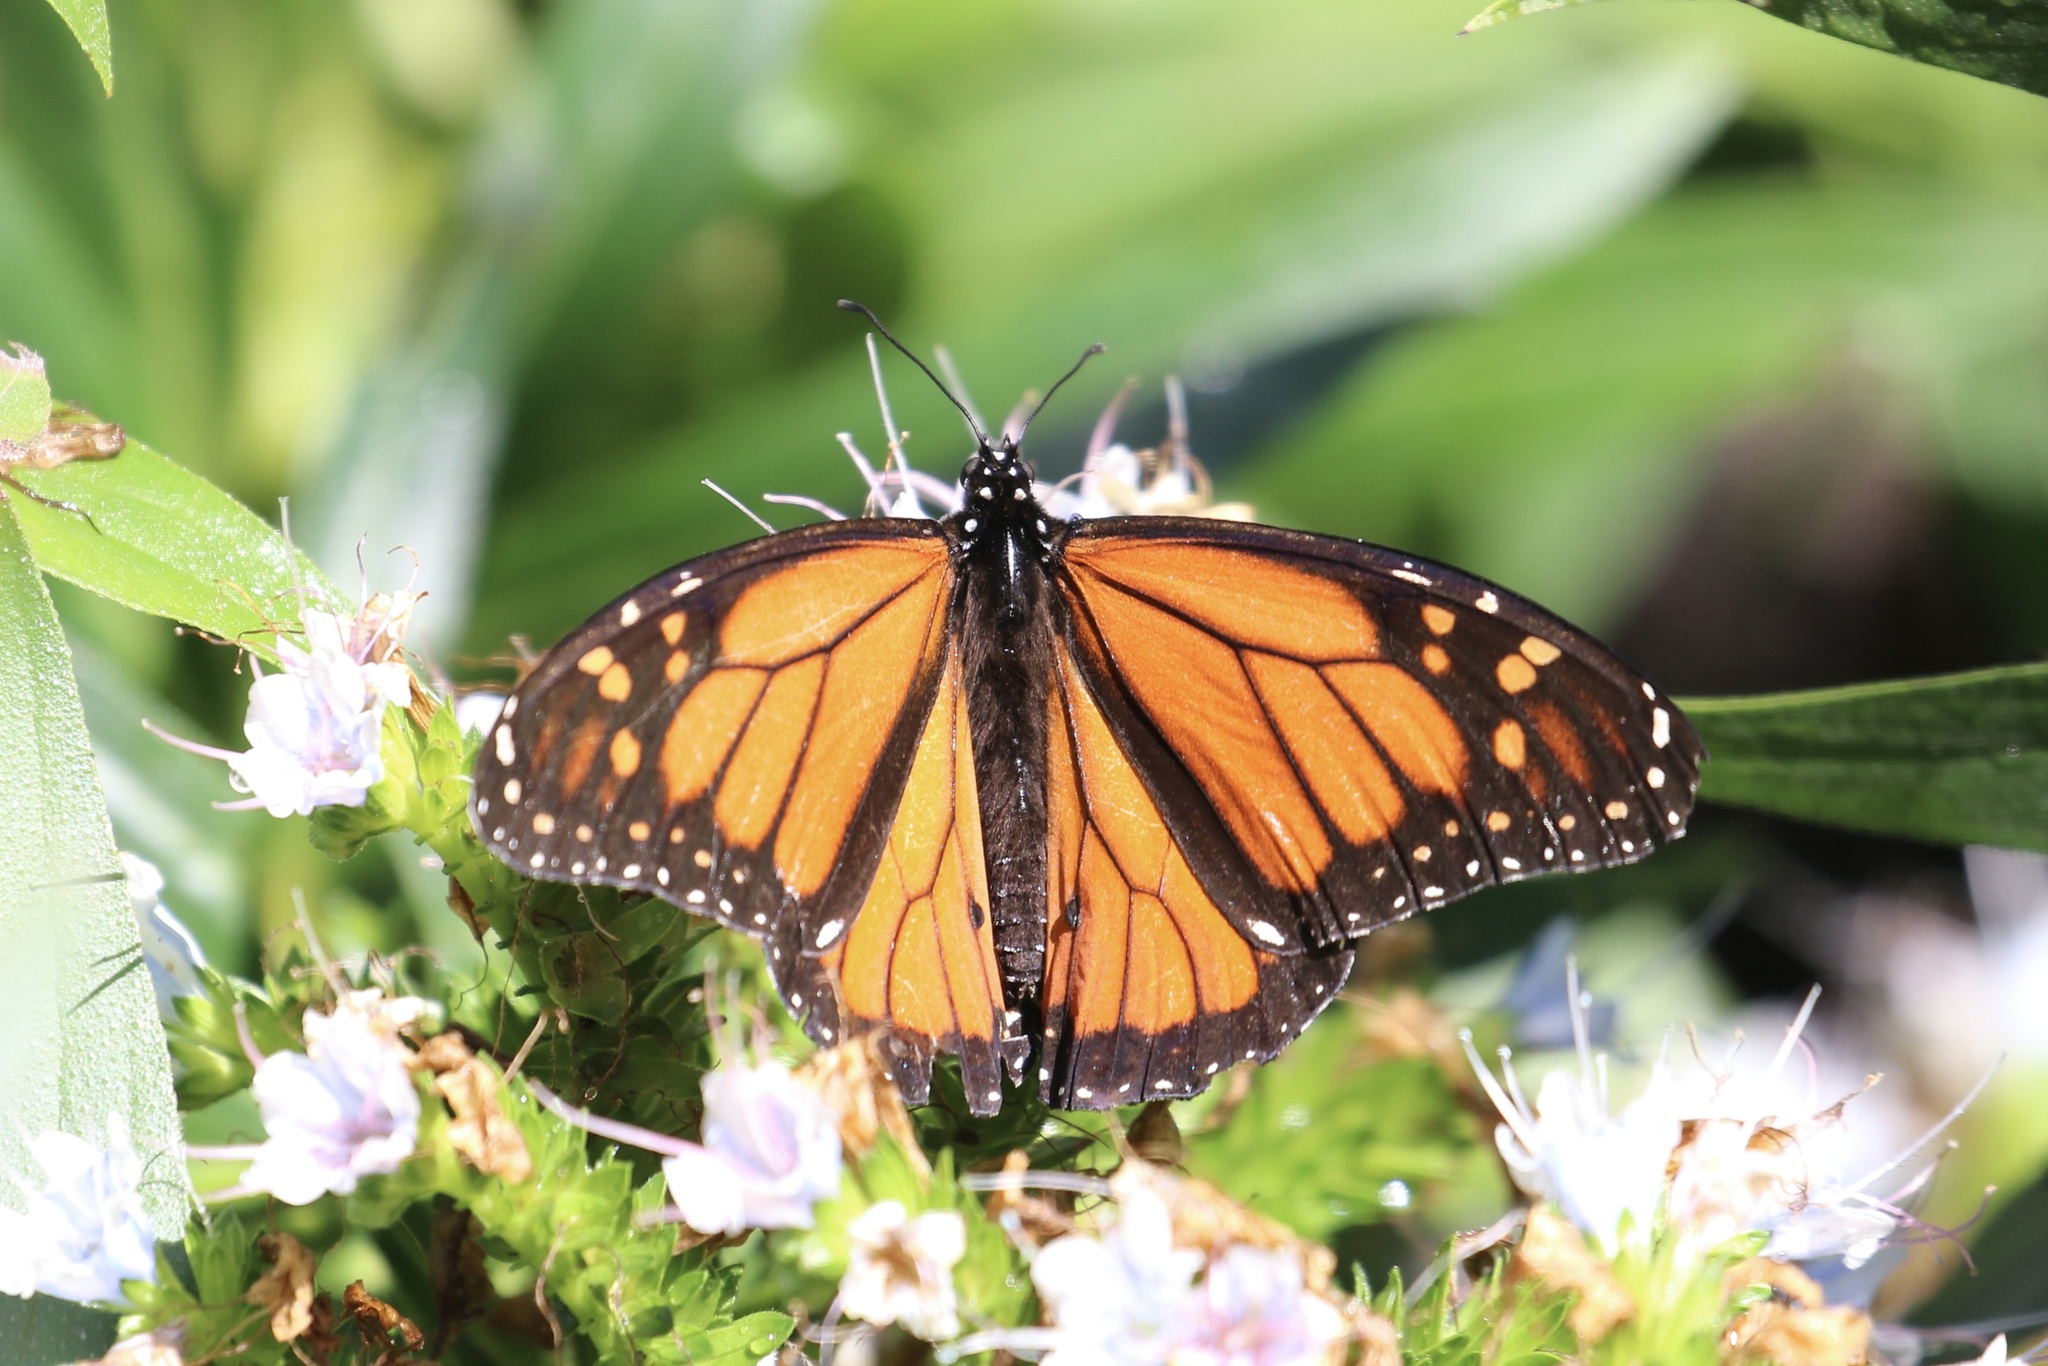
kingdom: Animalia
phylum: Arthropoda
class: Insecta
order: Lepidoptera
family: Nymphalidae
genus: Danaus
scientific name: Danaus plexippus
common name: Monarch
